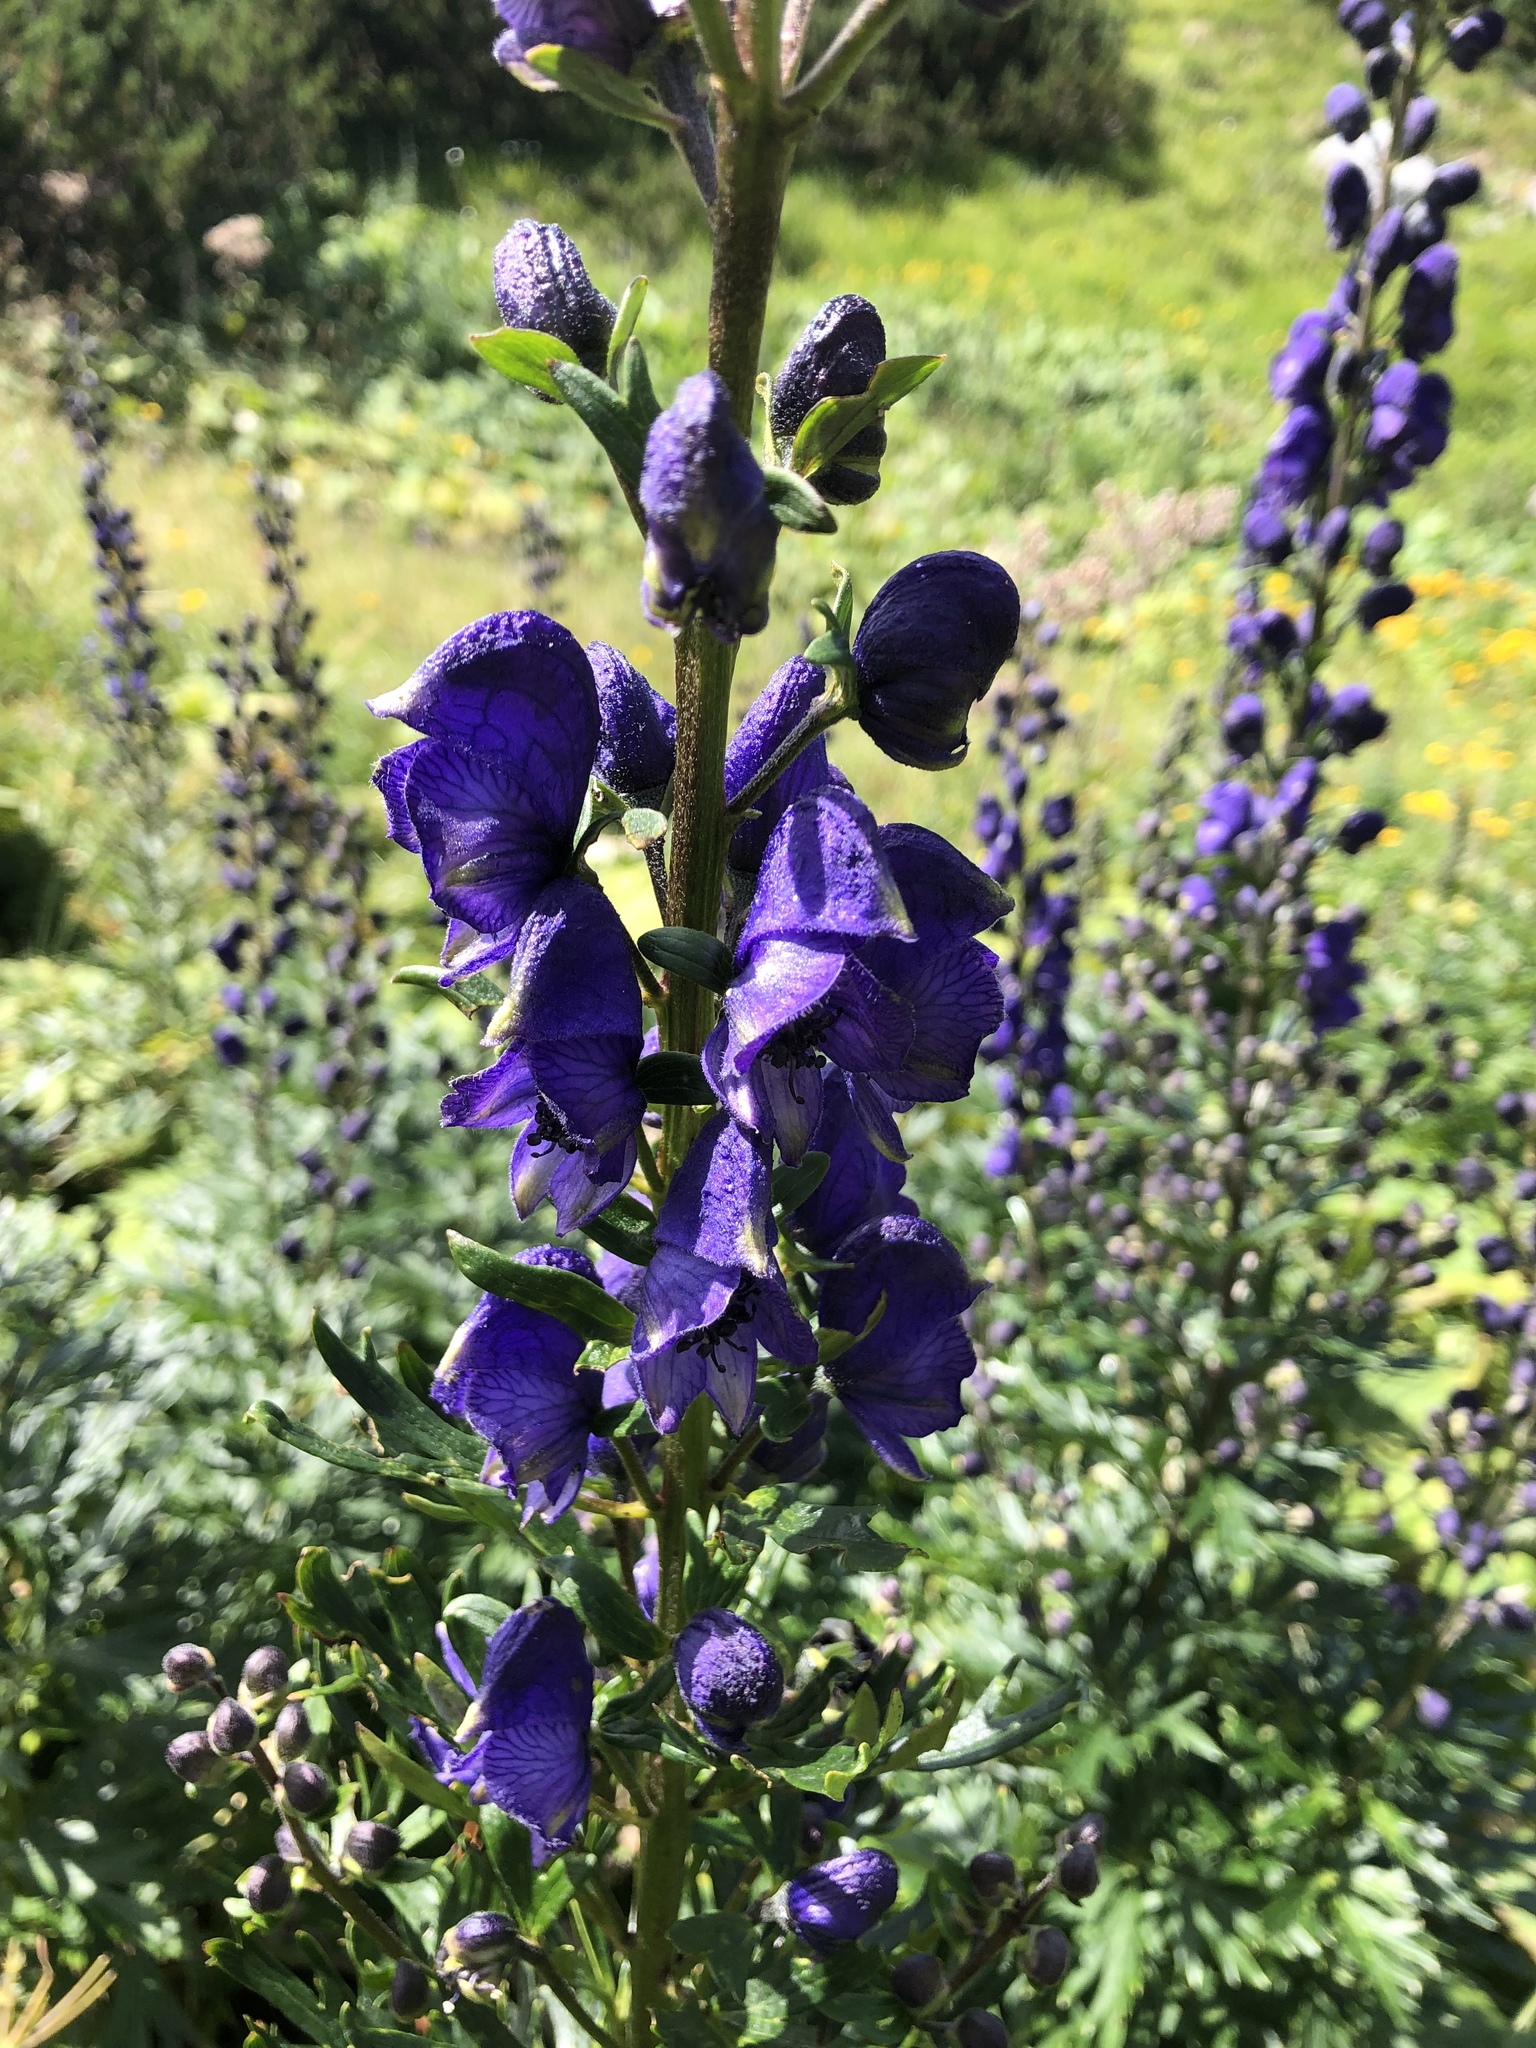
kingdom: Plantae
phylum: Tracheophyta
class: Magnoliopsida
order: Ranunculales
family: Ranunculaceae
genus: Aconitum
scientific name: Aconitum napellus
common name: Garden monkshood
